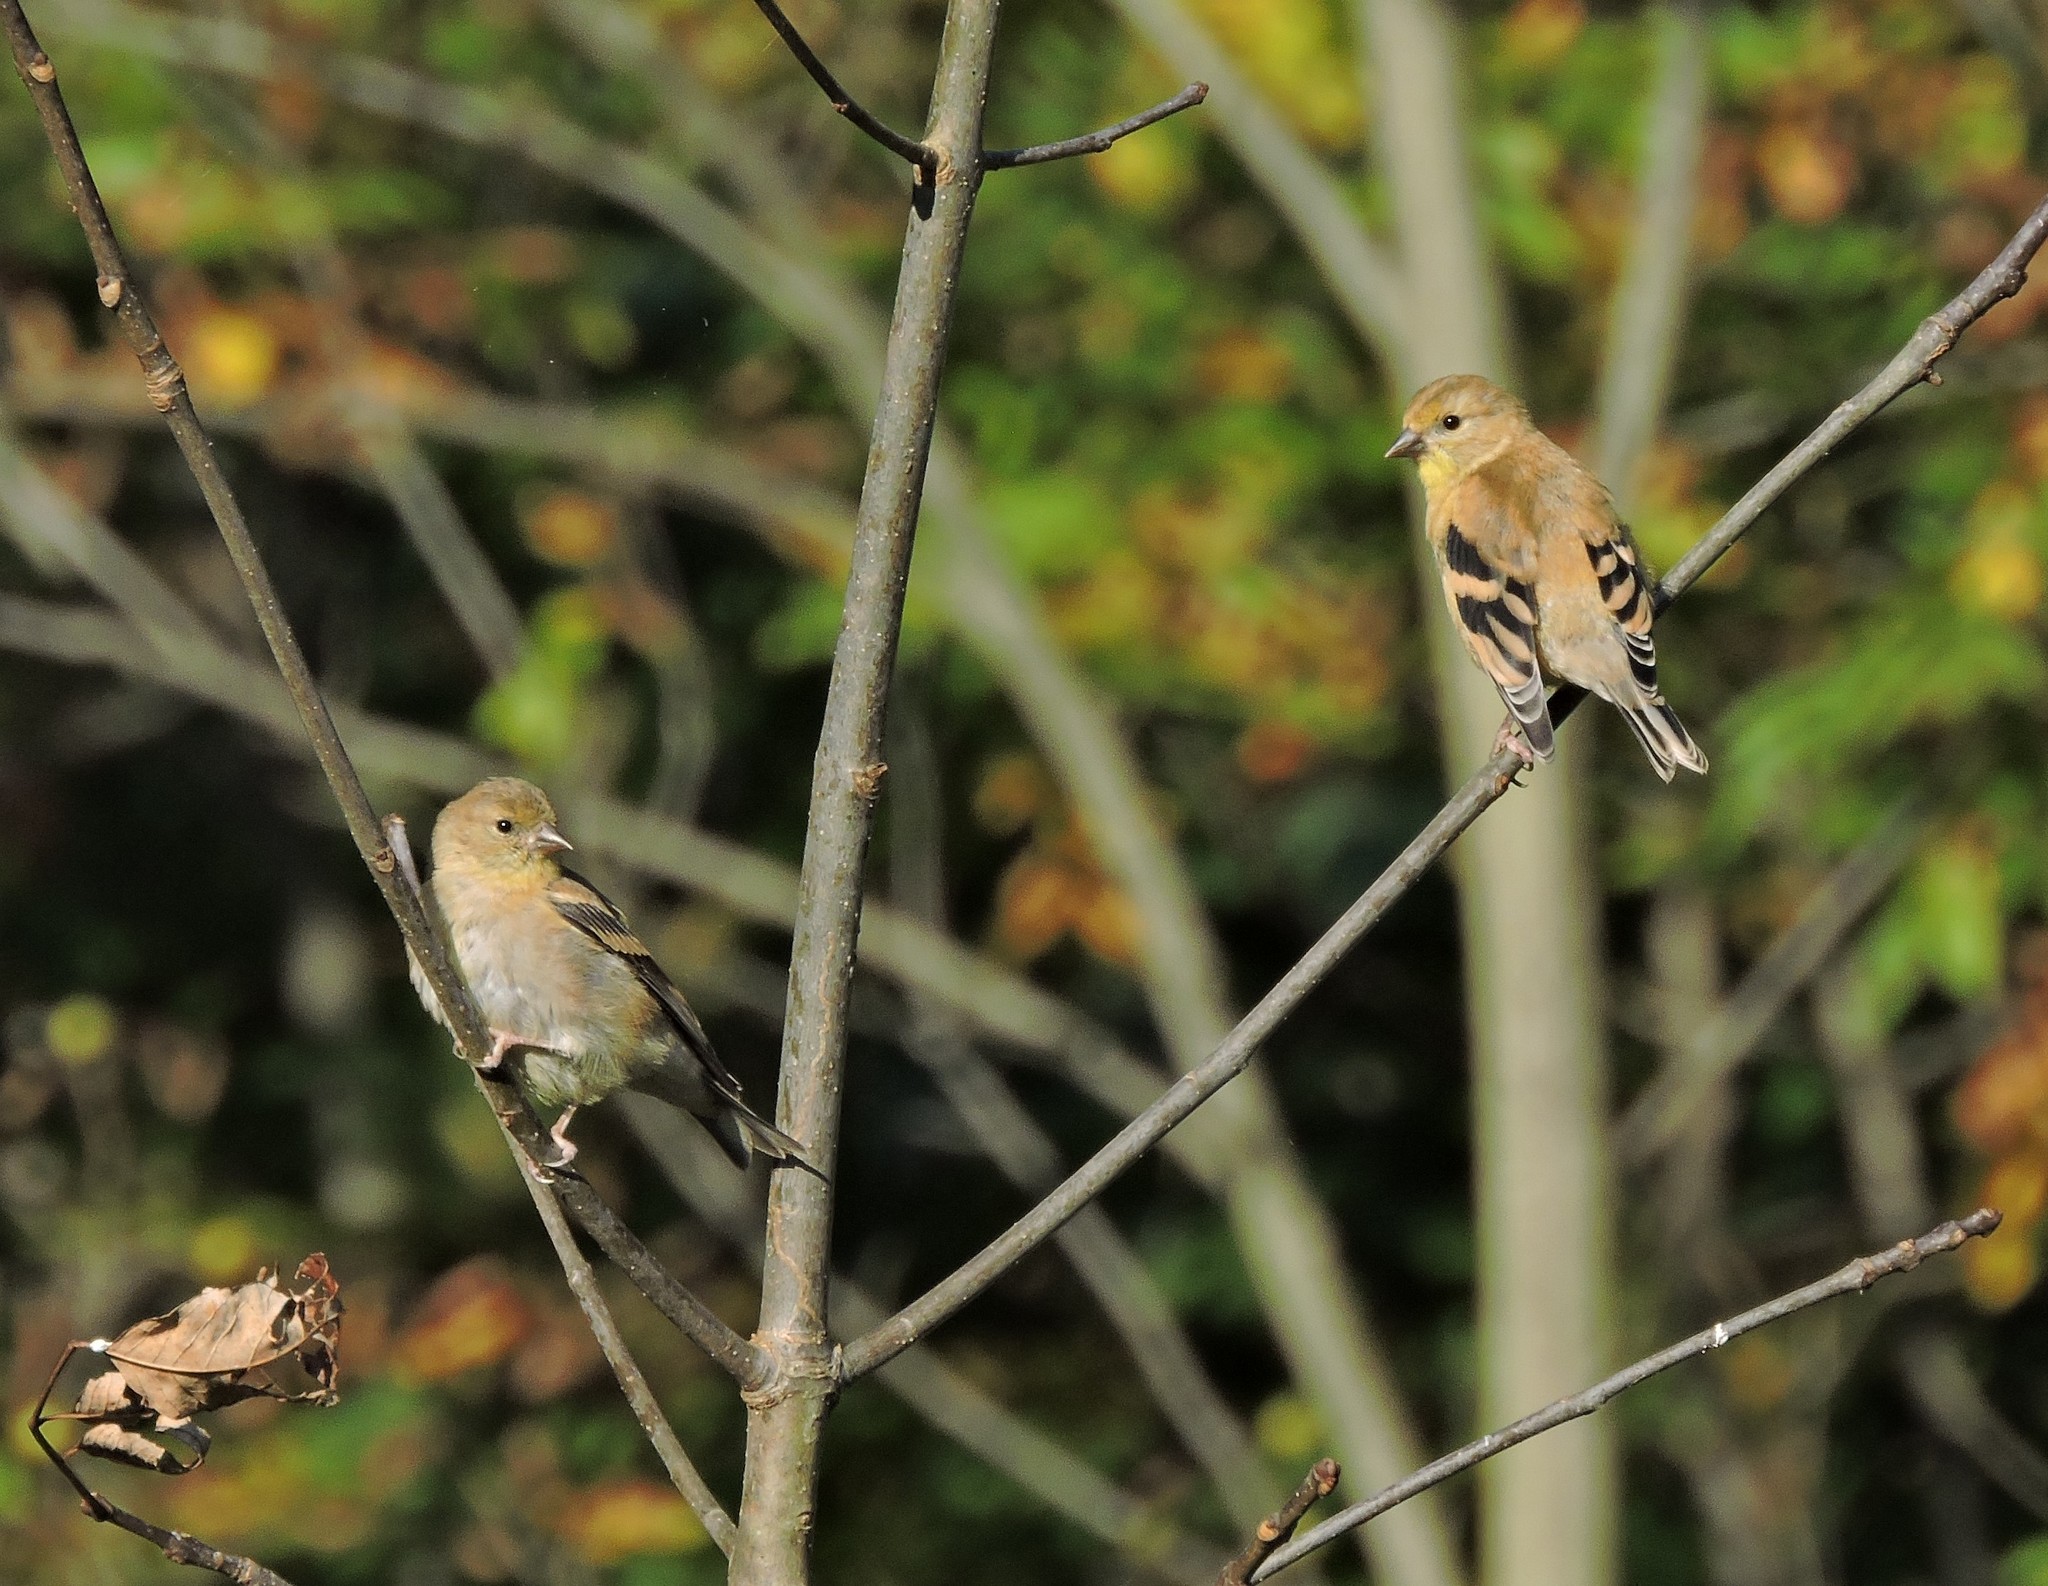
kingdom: Animalia
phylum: Chordata
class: Aves
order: Passeriformes
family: Fringillidae
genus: Spinus
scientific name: Spinus tristis
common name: American goldfinch
